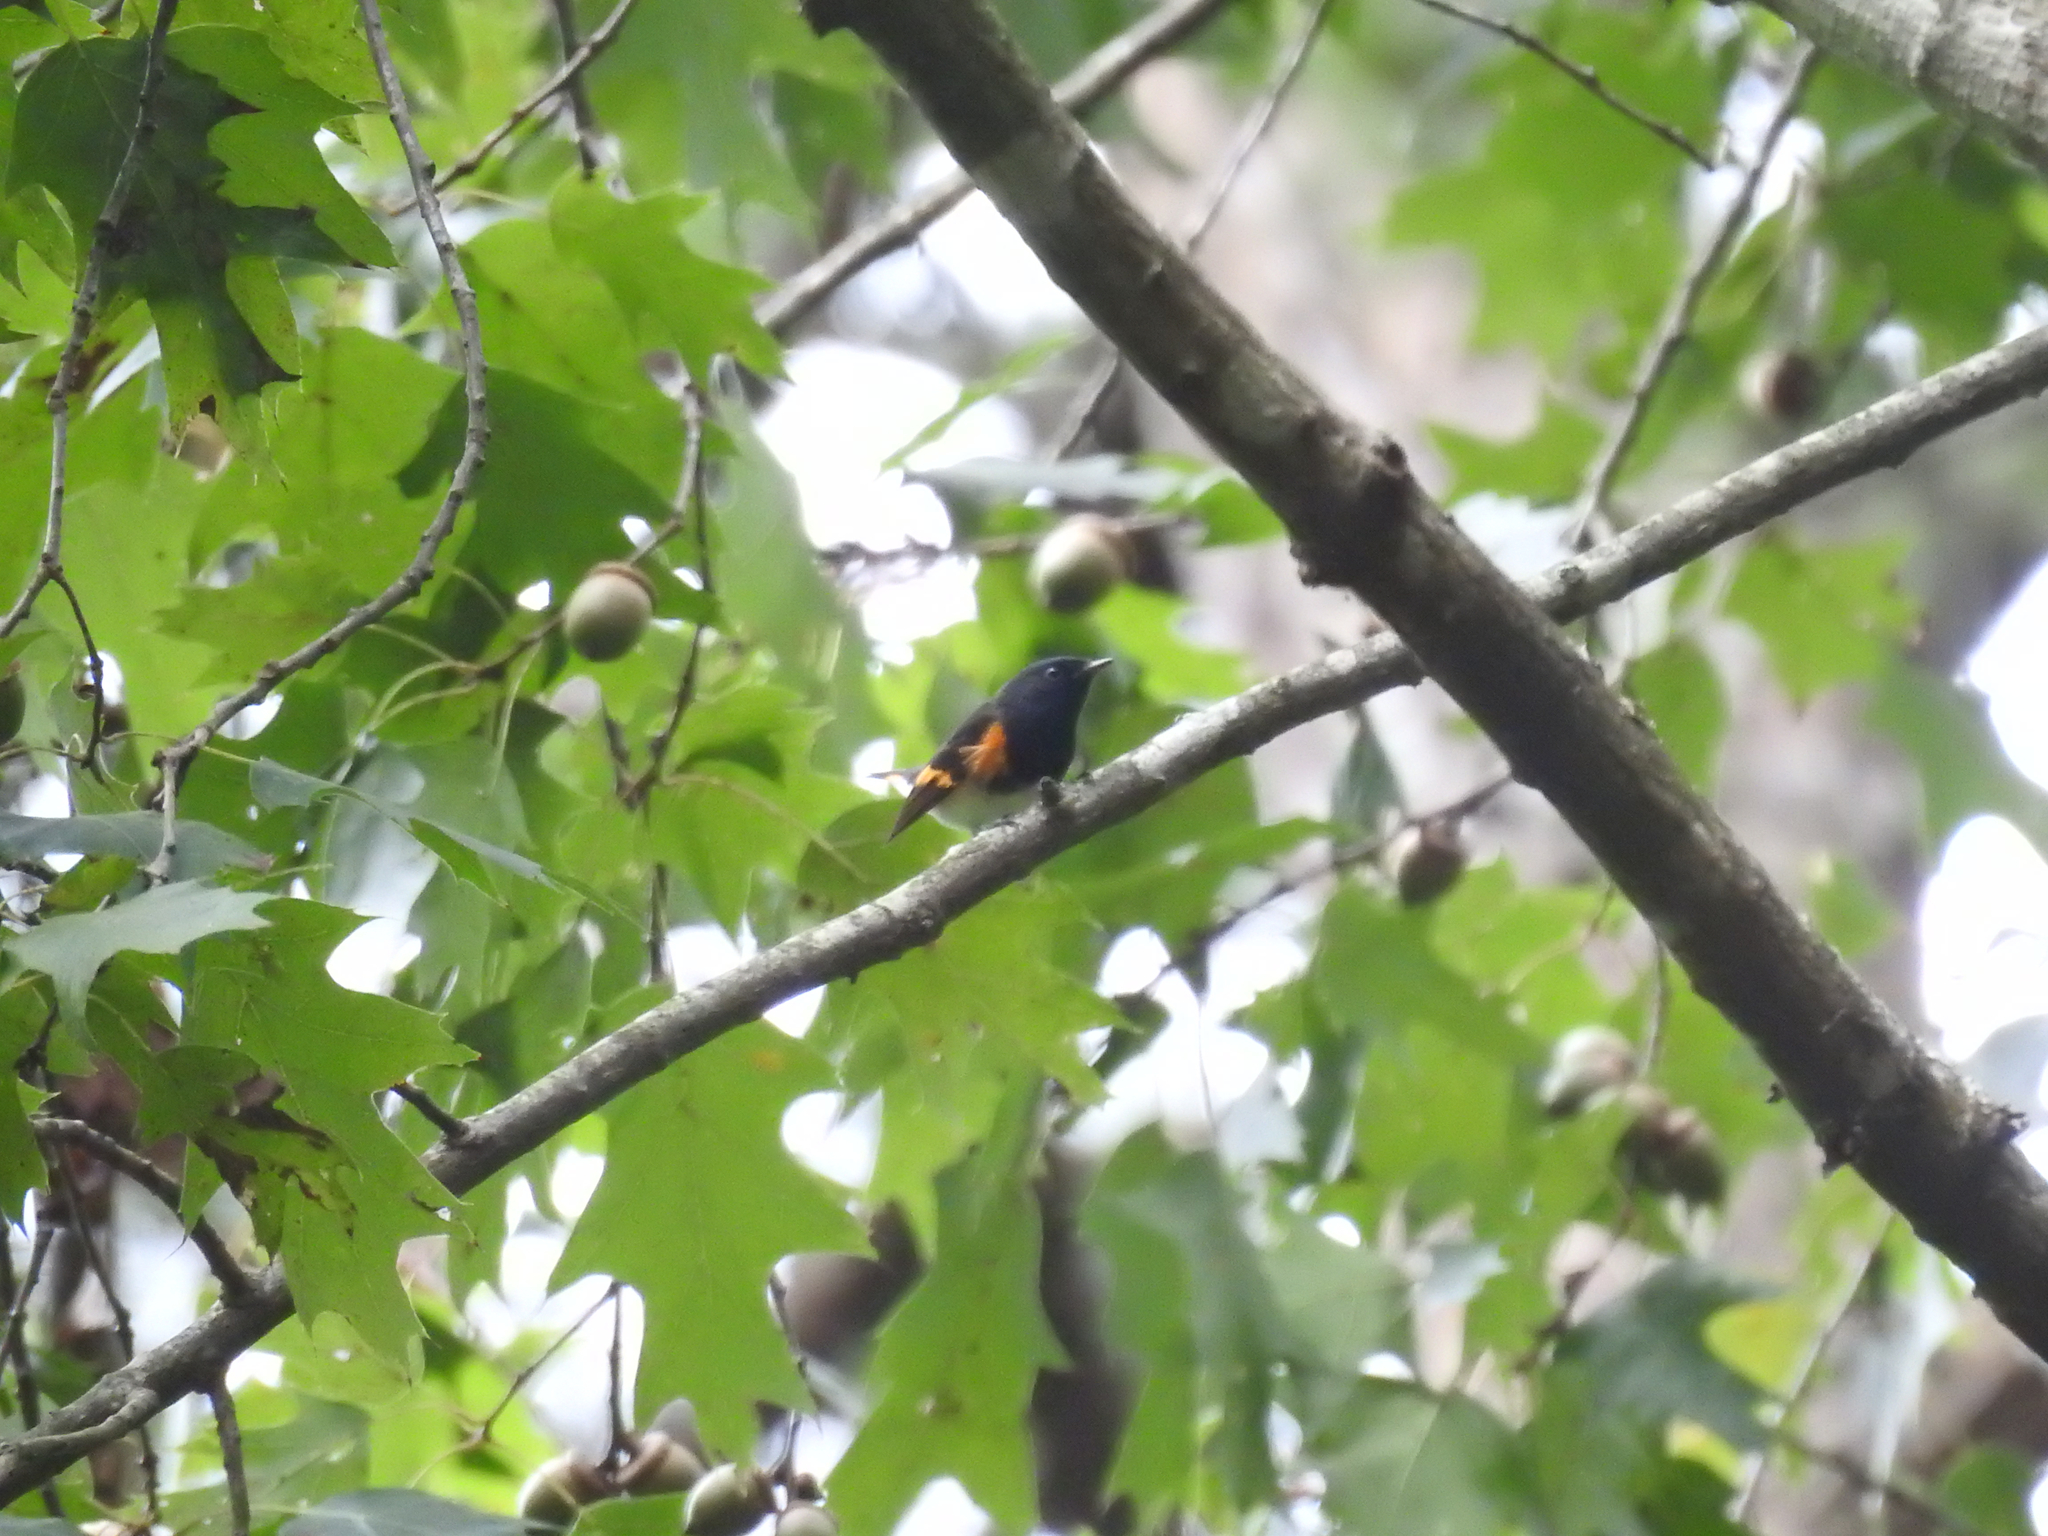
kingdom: Animalia
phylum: Chordata
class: Aves
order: Passeriformes
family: Parulidae
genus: Setophaga
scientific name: Setophaga ruticilla
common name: American redstart
